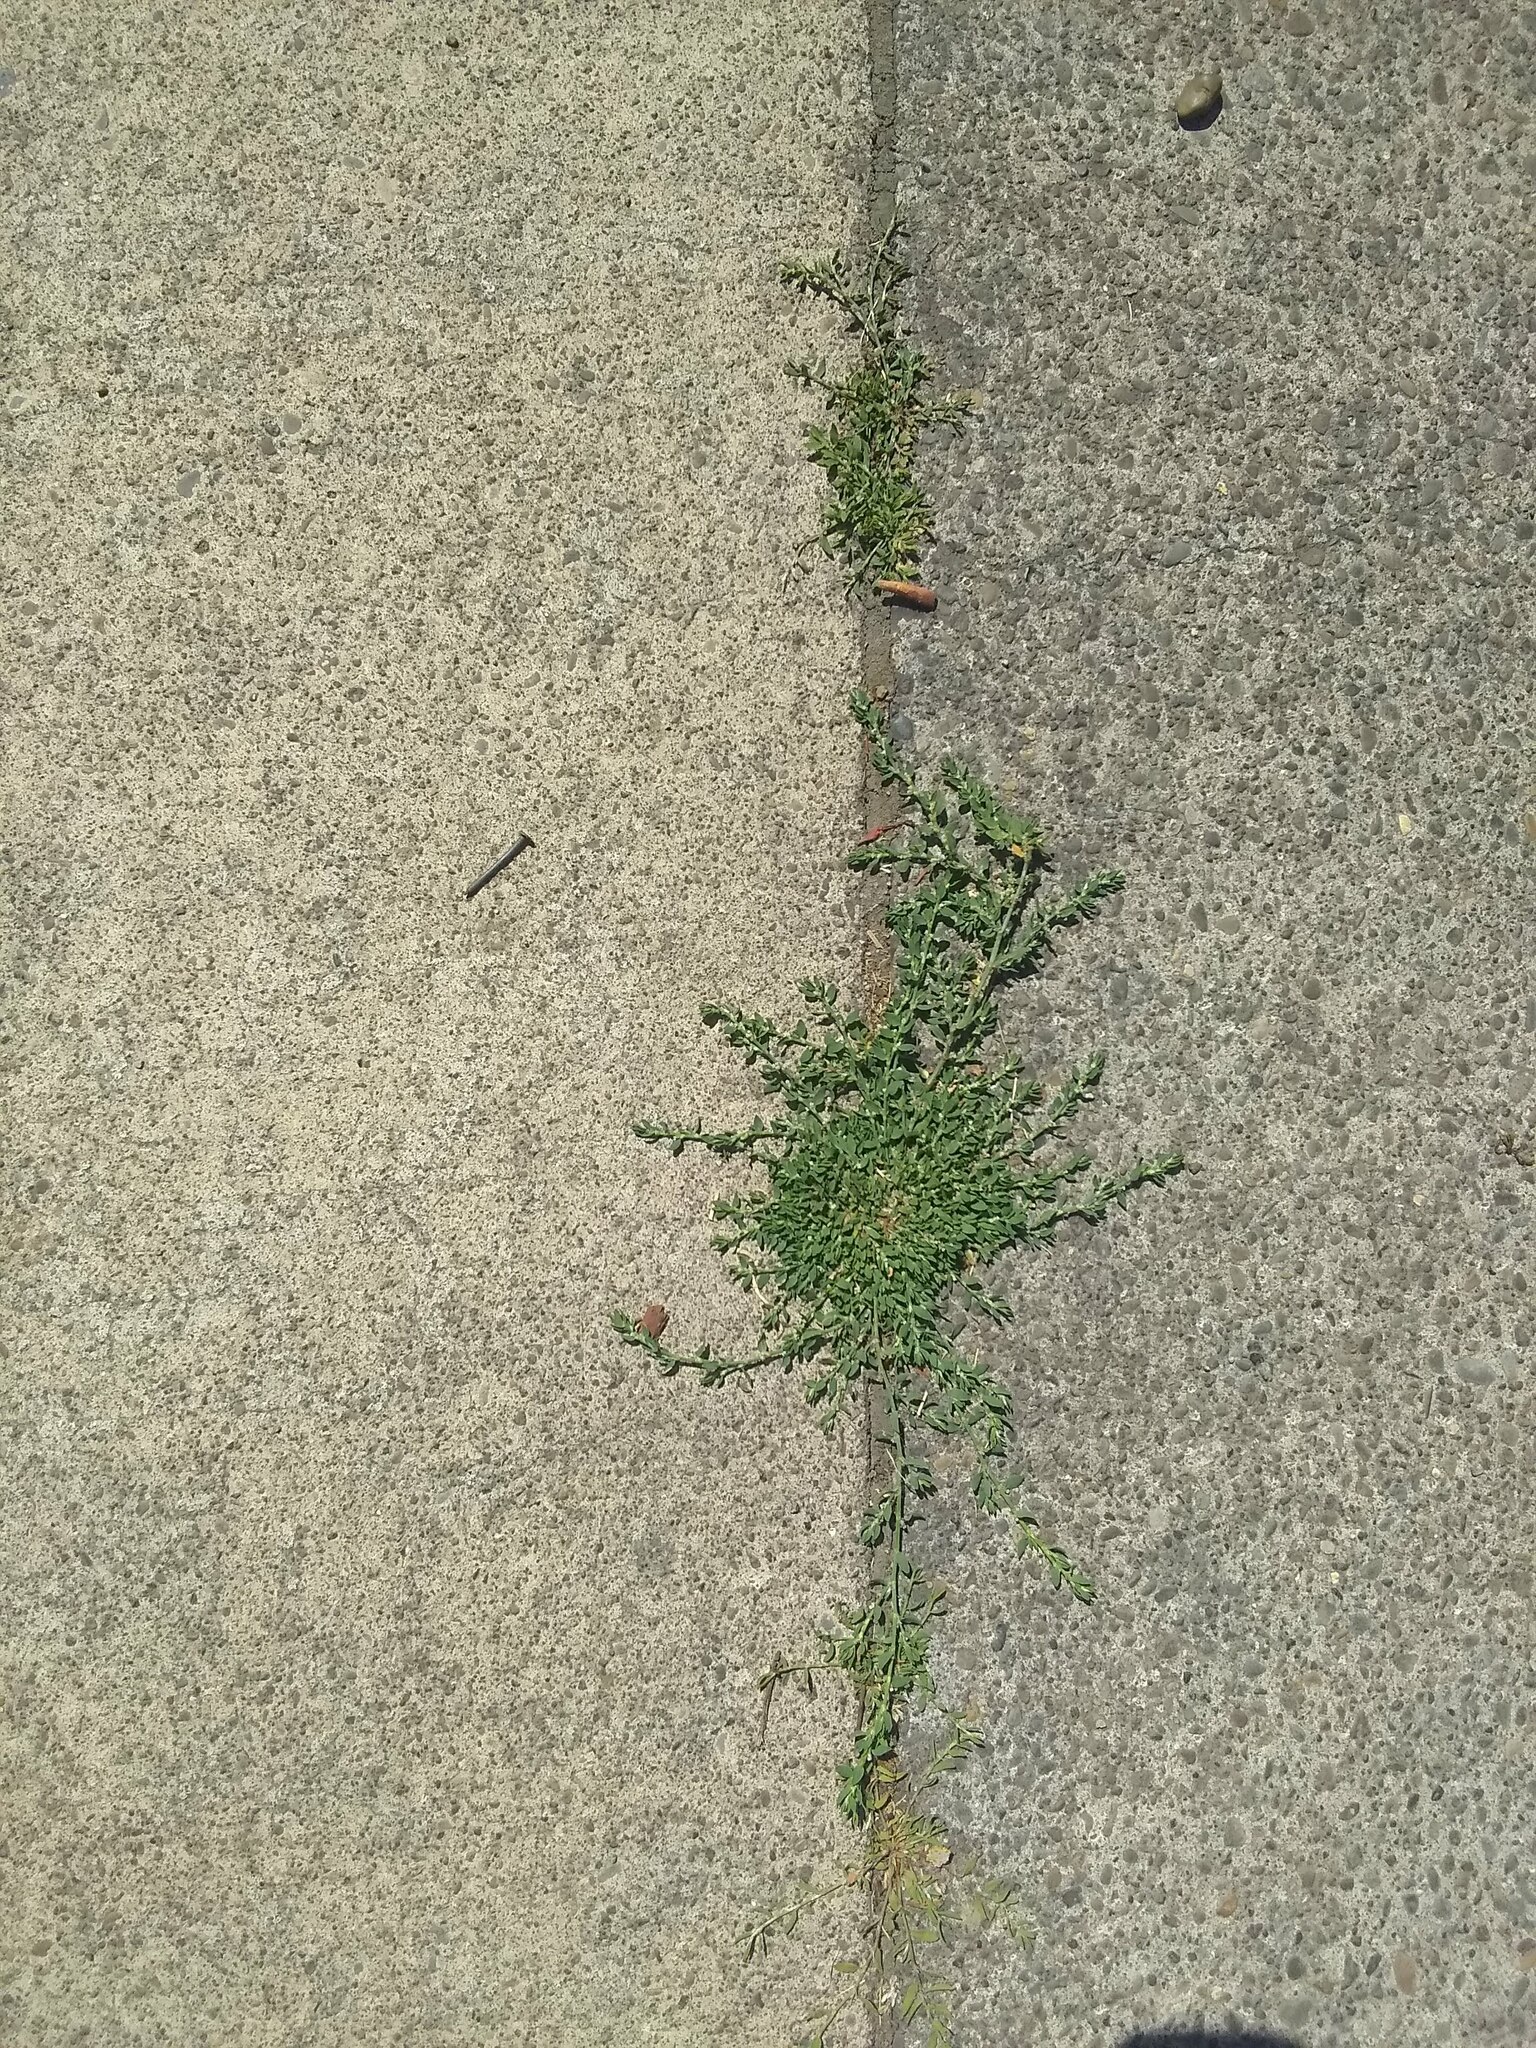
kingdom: Plantae
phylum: Tracheophyta
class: Magnoliopsida
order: Caryophyllales
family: Polygonaceae
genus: Polygonum
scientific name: Polygonum aviculare
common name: Prostrate knotweed
